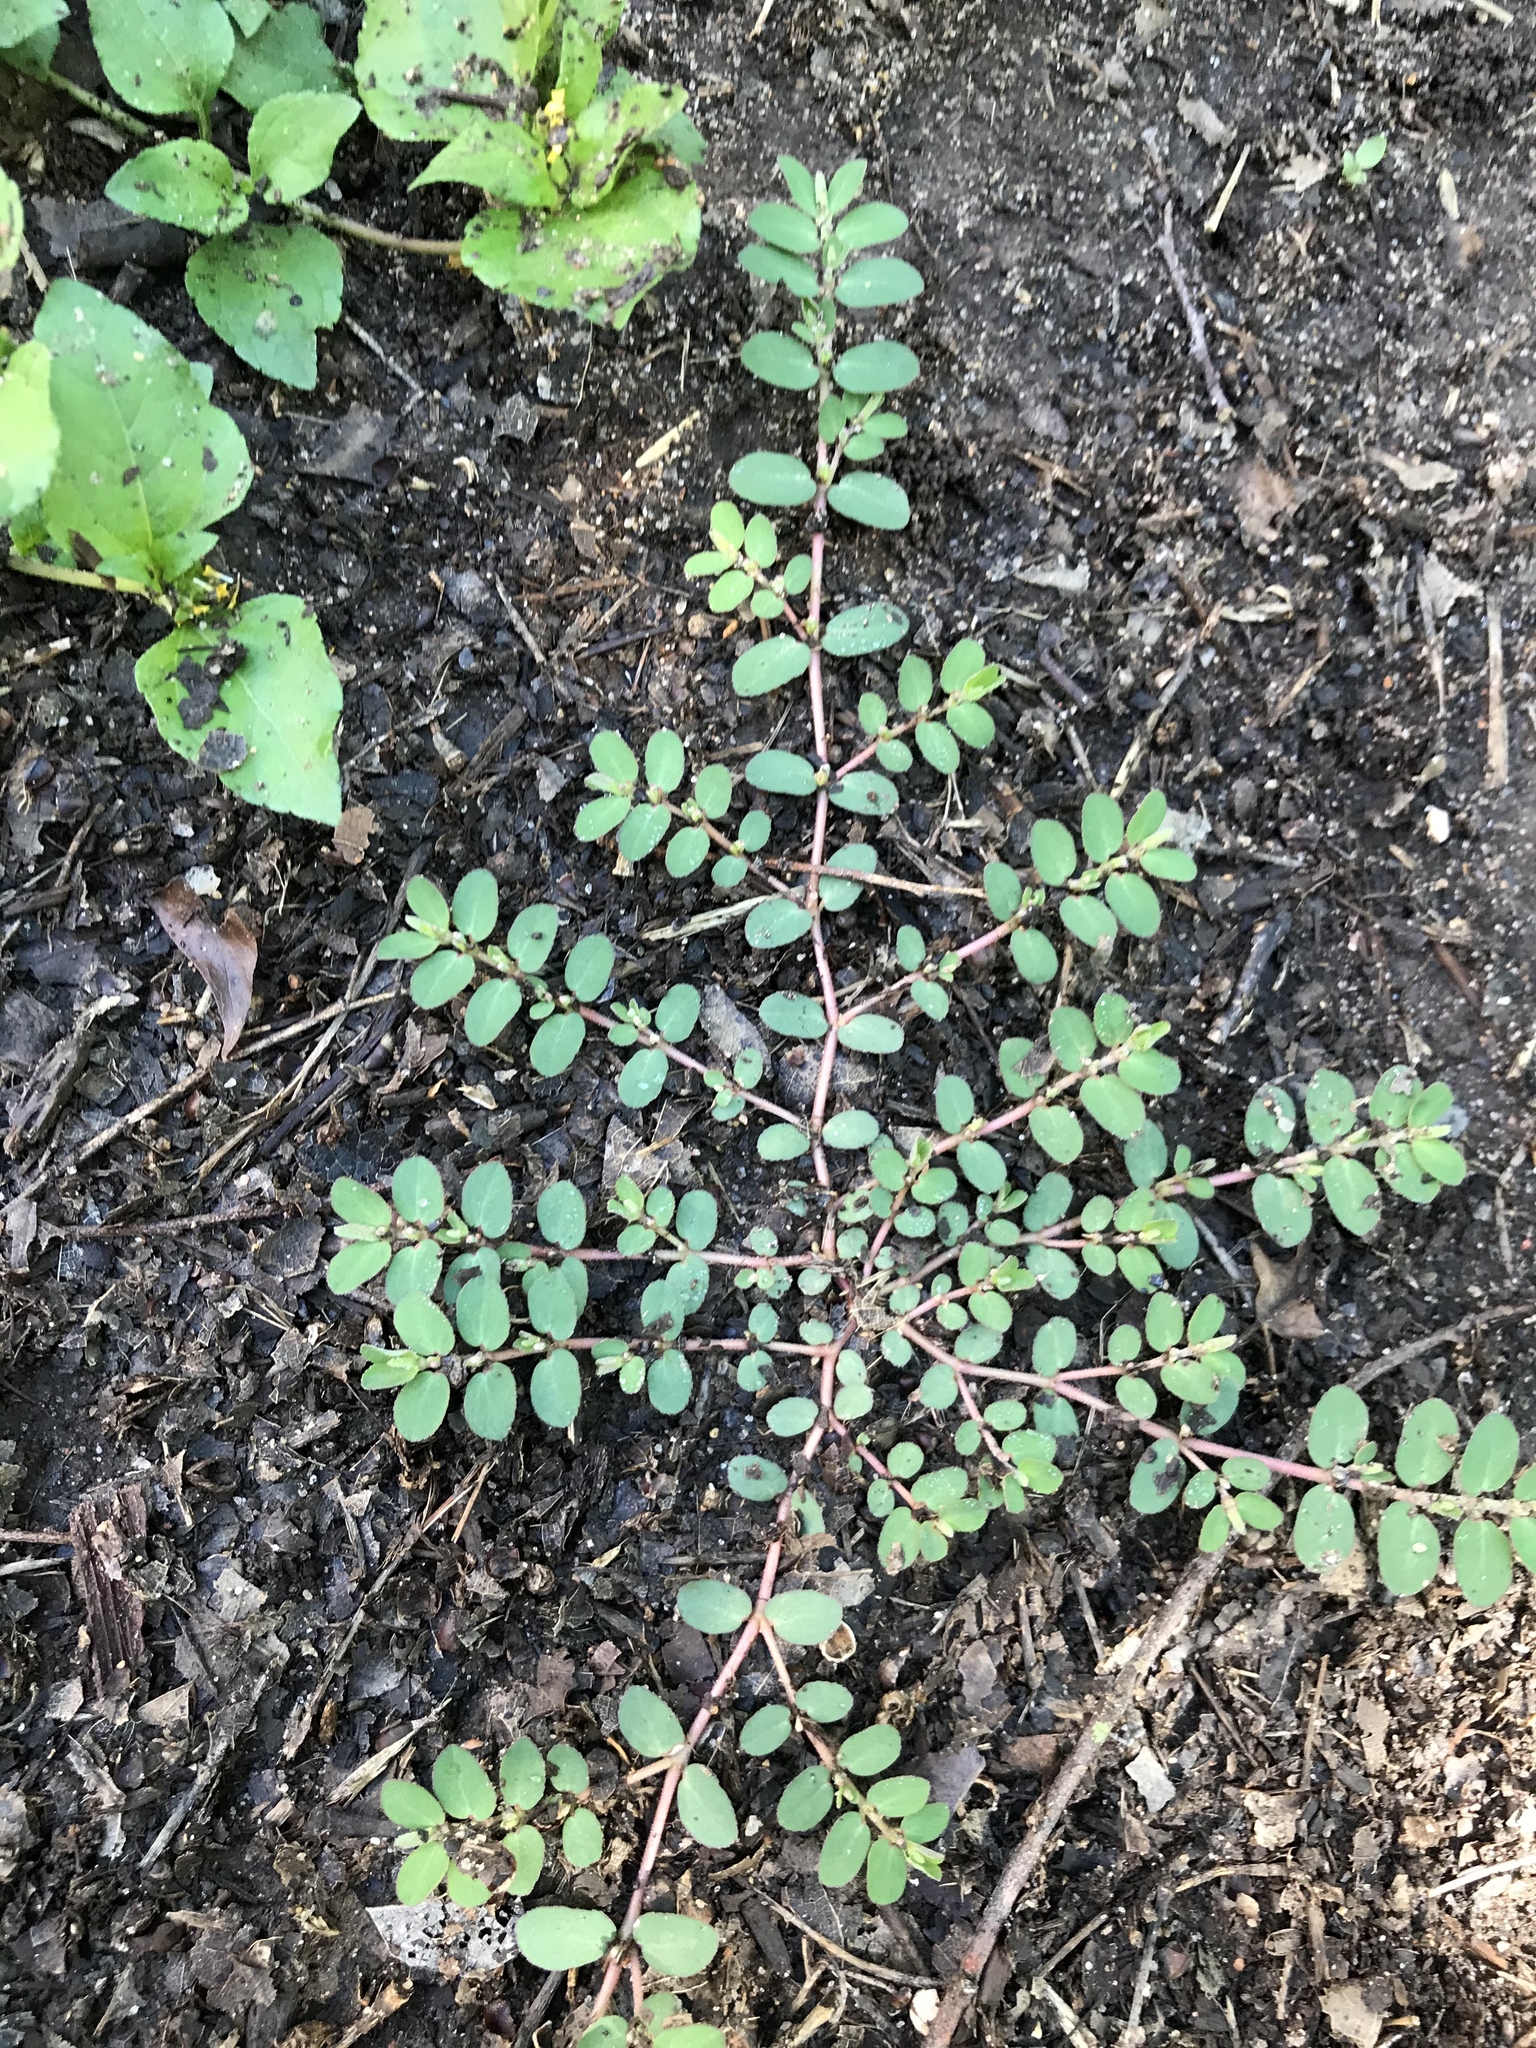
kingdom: Plantae
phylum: Tracheophyta
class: Magnoliopsida
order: Malpighiales
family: Euphorbiaceae
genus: Euphorbia
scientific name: Euphorbia prostrata
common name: Prostrate sandmat
